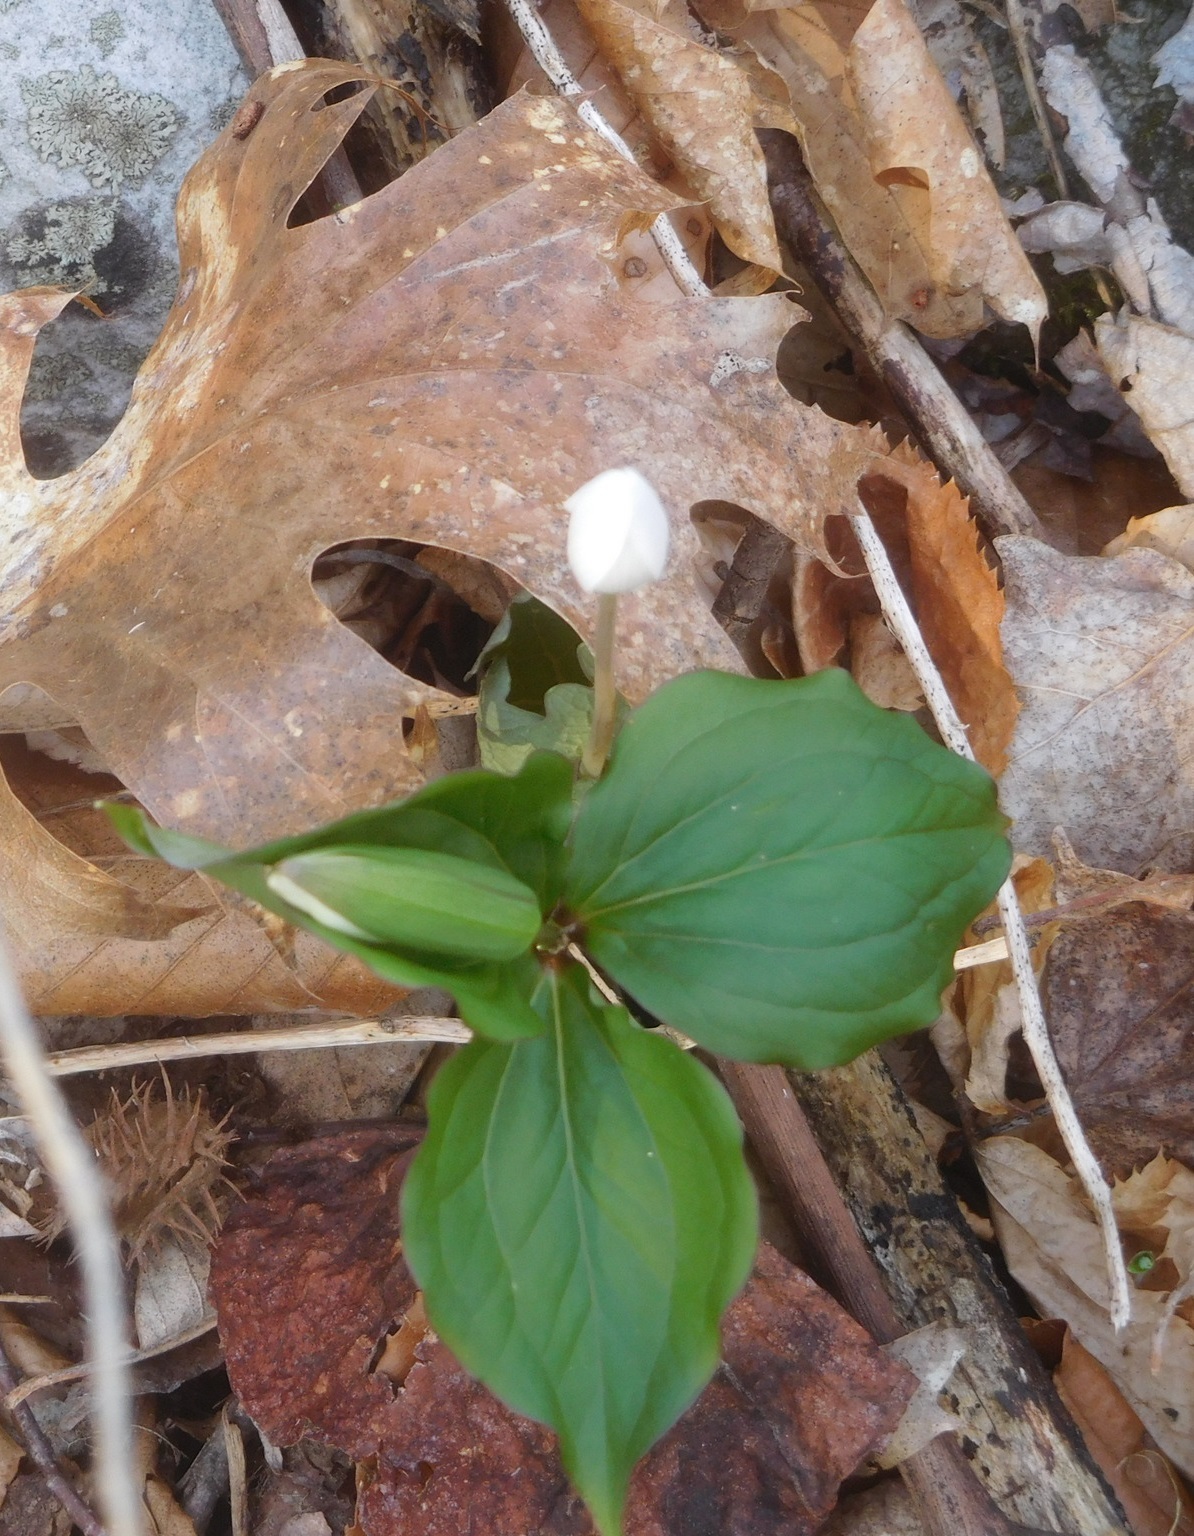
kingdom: Plantae
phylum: Tracheophyta
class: Liliopsida
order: Liliales
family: Melanthiaceae
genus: Trillium
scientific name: Trillium grandiflorum
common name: Great white trillium
